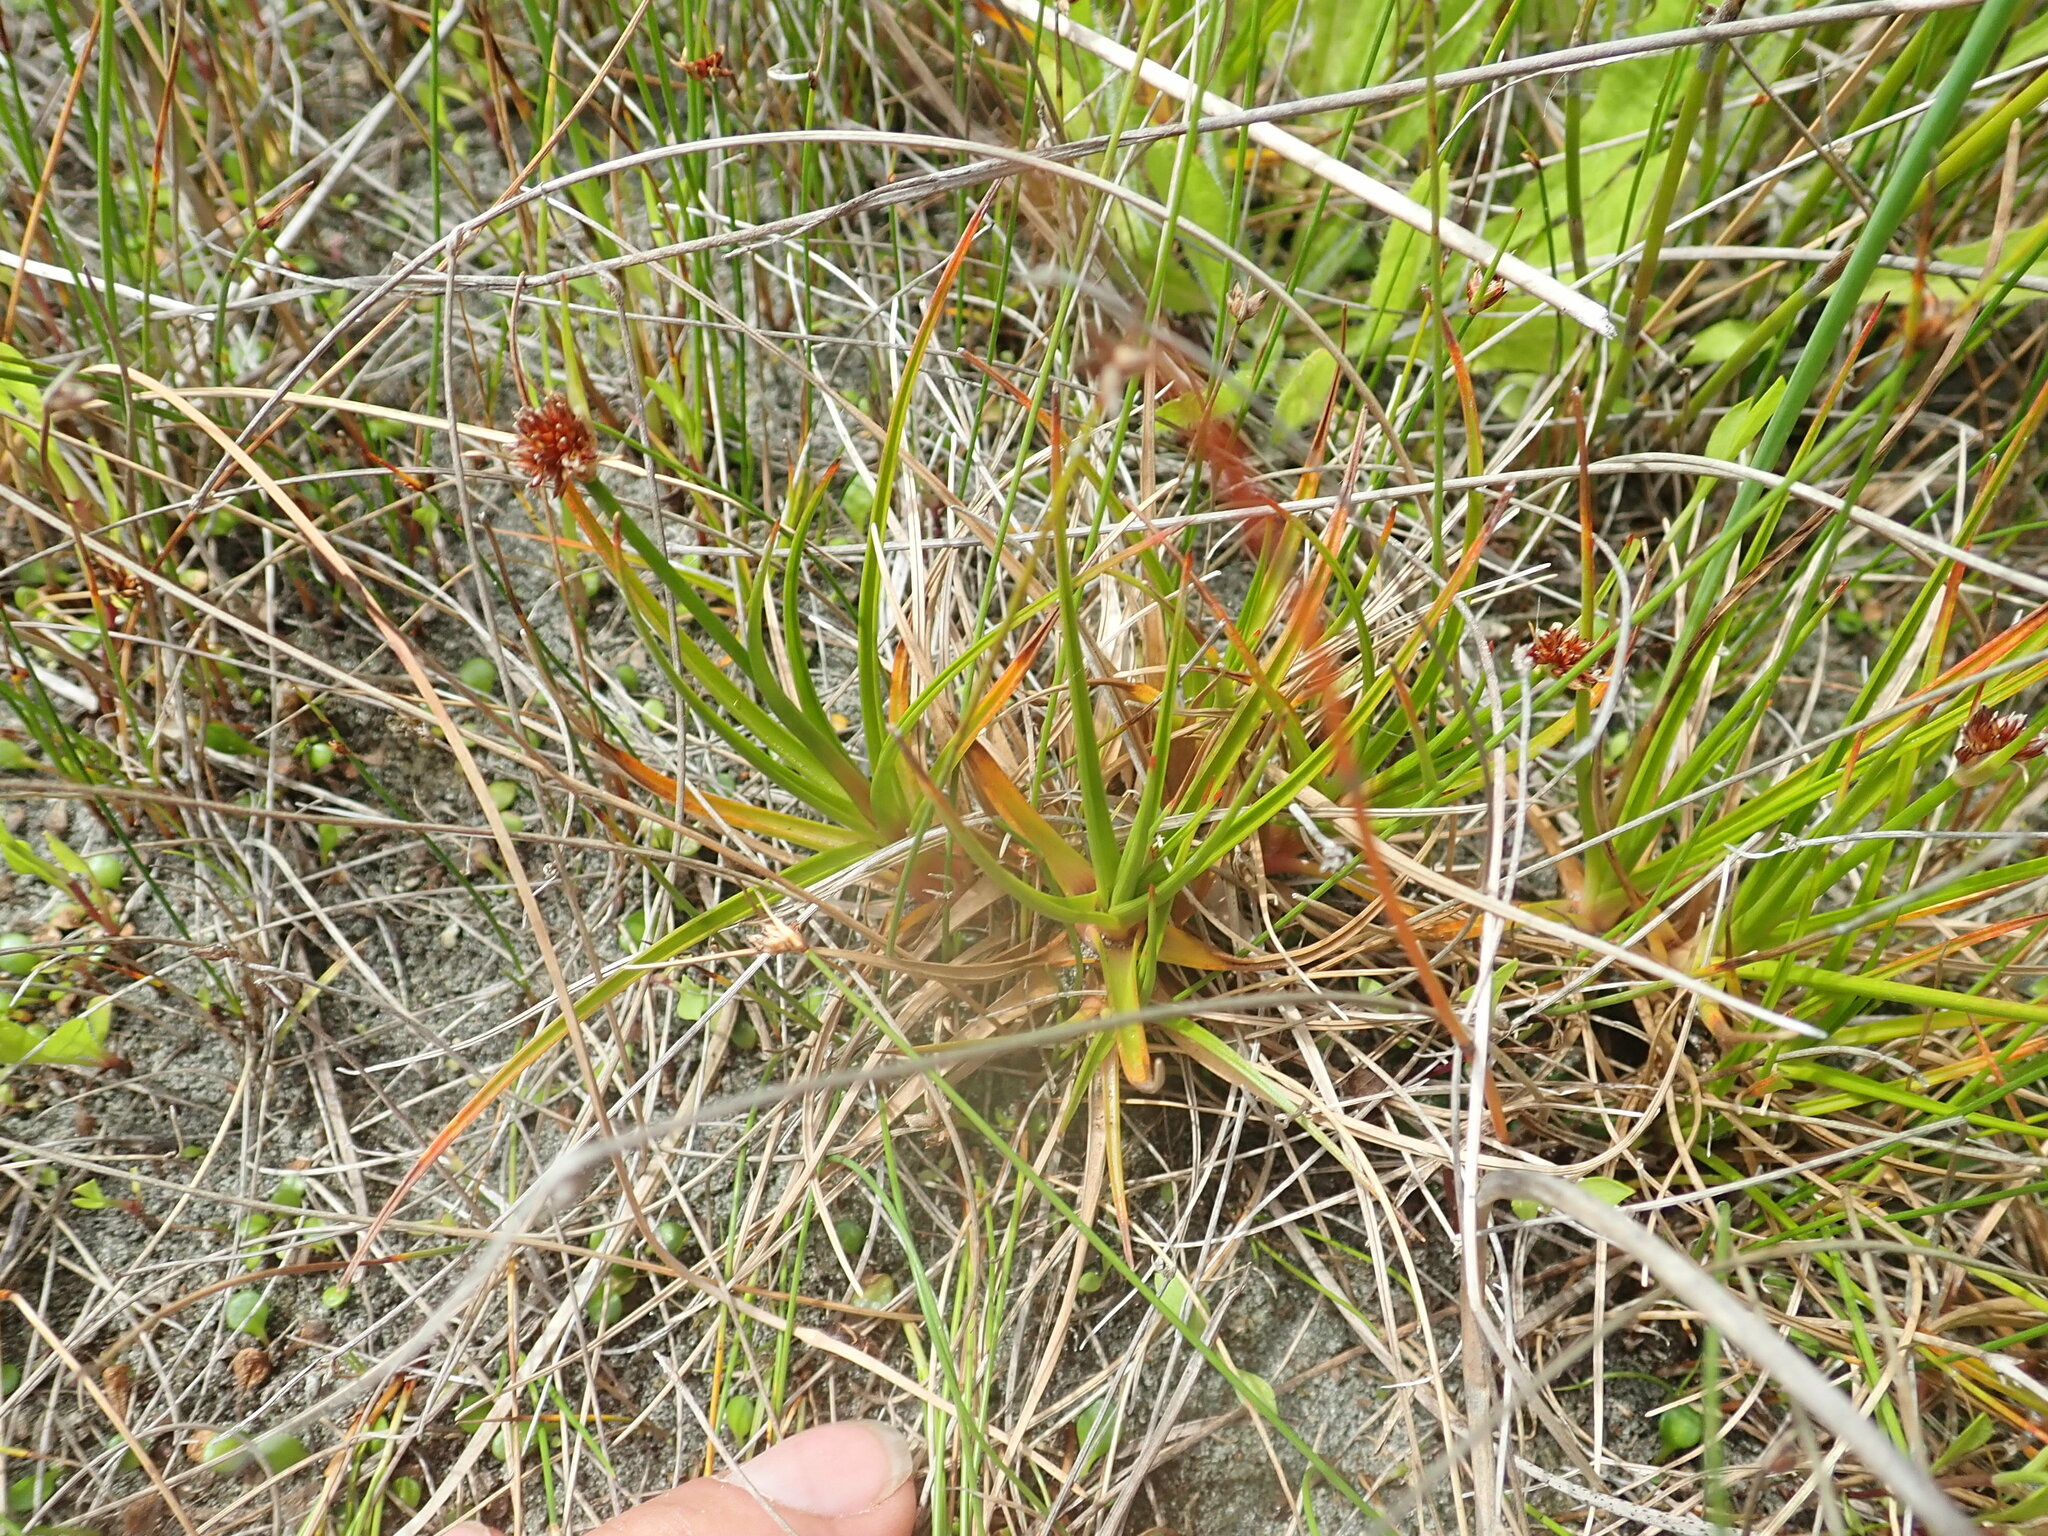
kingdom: Plantae
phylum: Tracheophyta
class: Liliopsida
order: Poales
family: Juncaceae
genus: Juncus
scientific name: Juncus caespiticius
